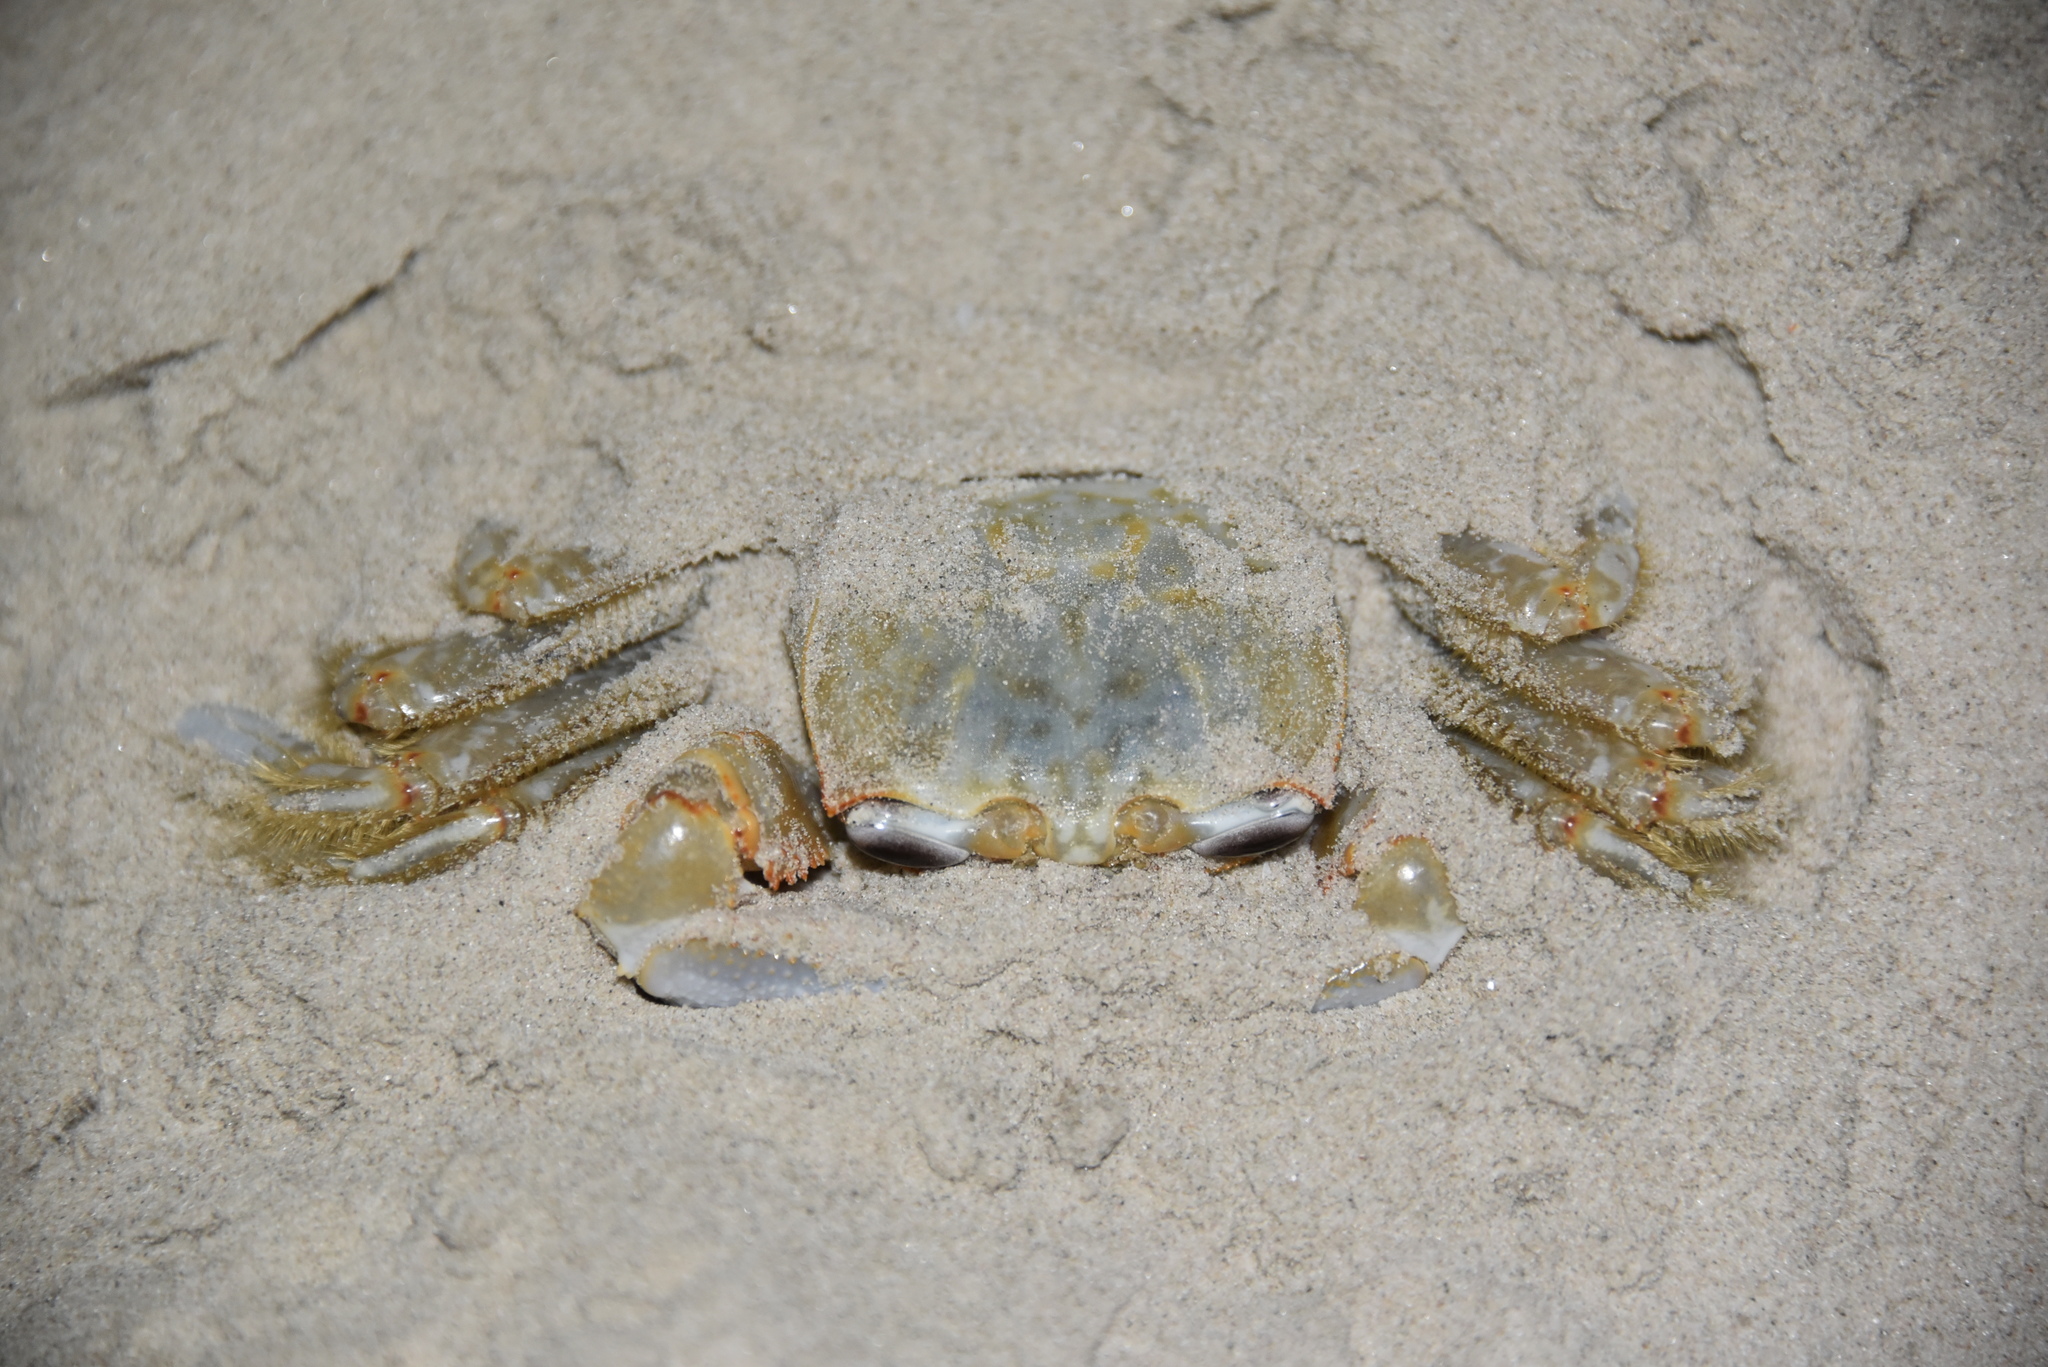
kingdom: Animalia
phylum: Arthropoda
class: Malacostraca
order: Decapoda
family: Ocypodidae
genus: Ocypode
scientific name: Ocypode quadrata
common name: Ghost crab
